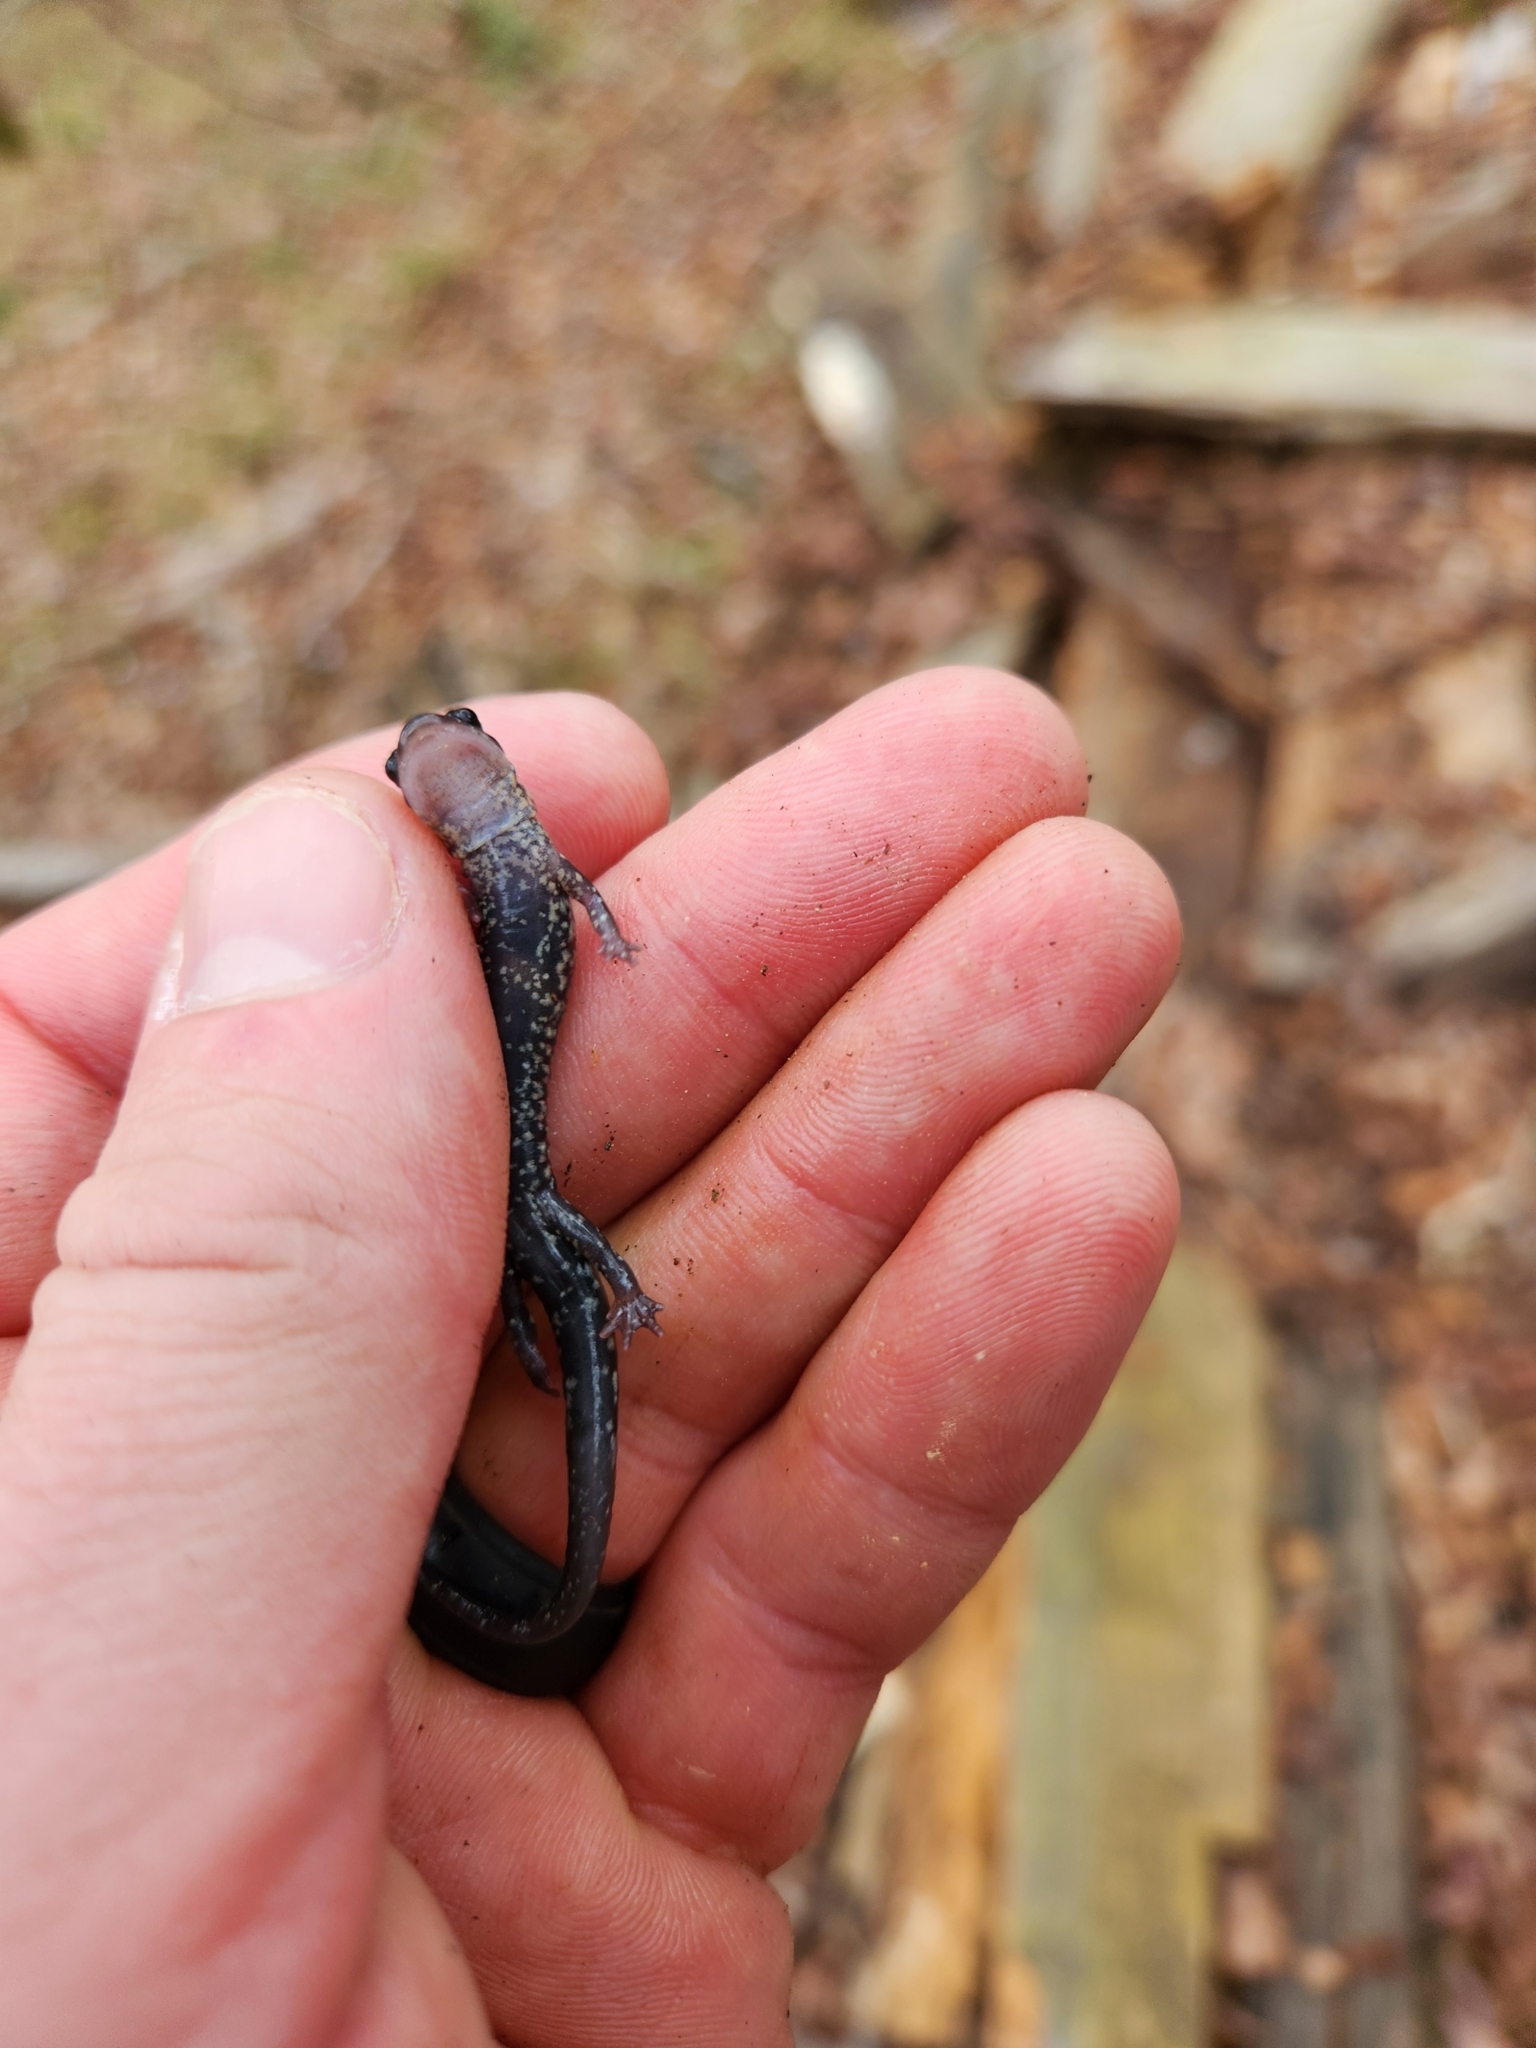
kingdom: Animalia
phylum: Chordata
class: Amphibia
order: Caudata
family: Plethodontidae
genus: Plethodon
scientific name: Plethodon caddoensis
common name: Caddo mountain salamander
